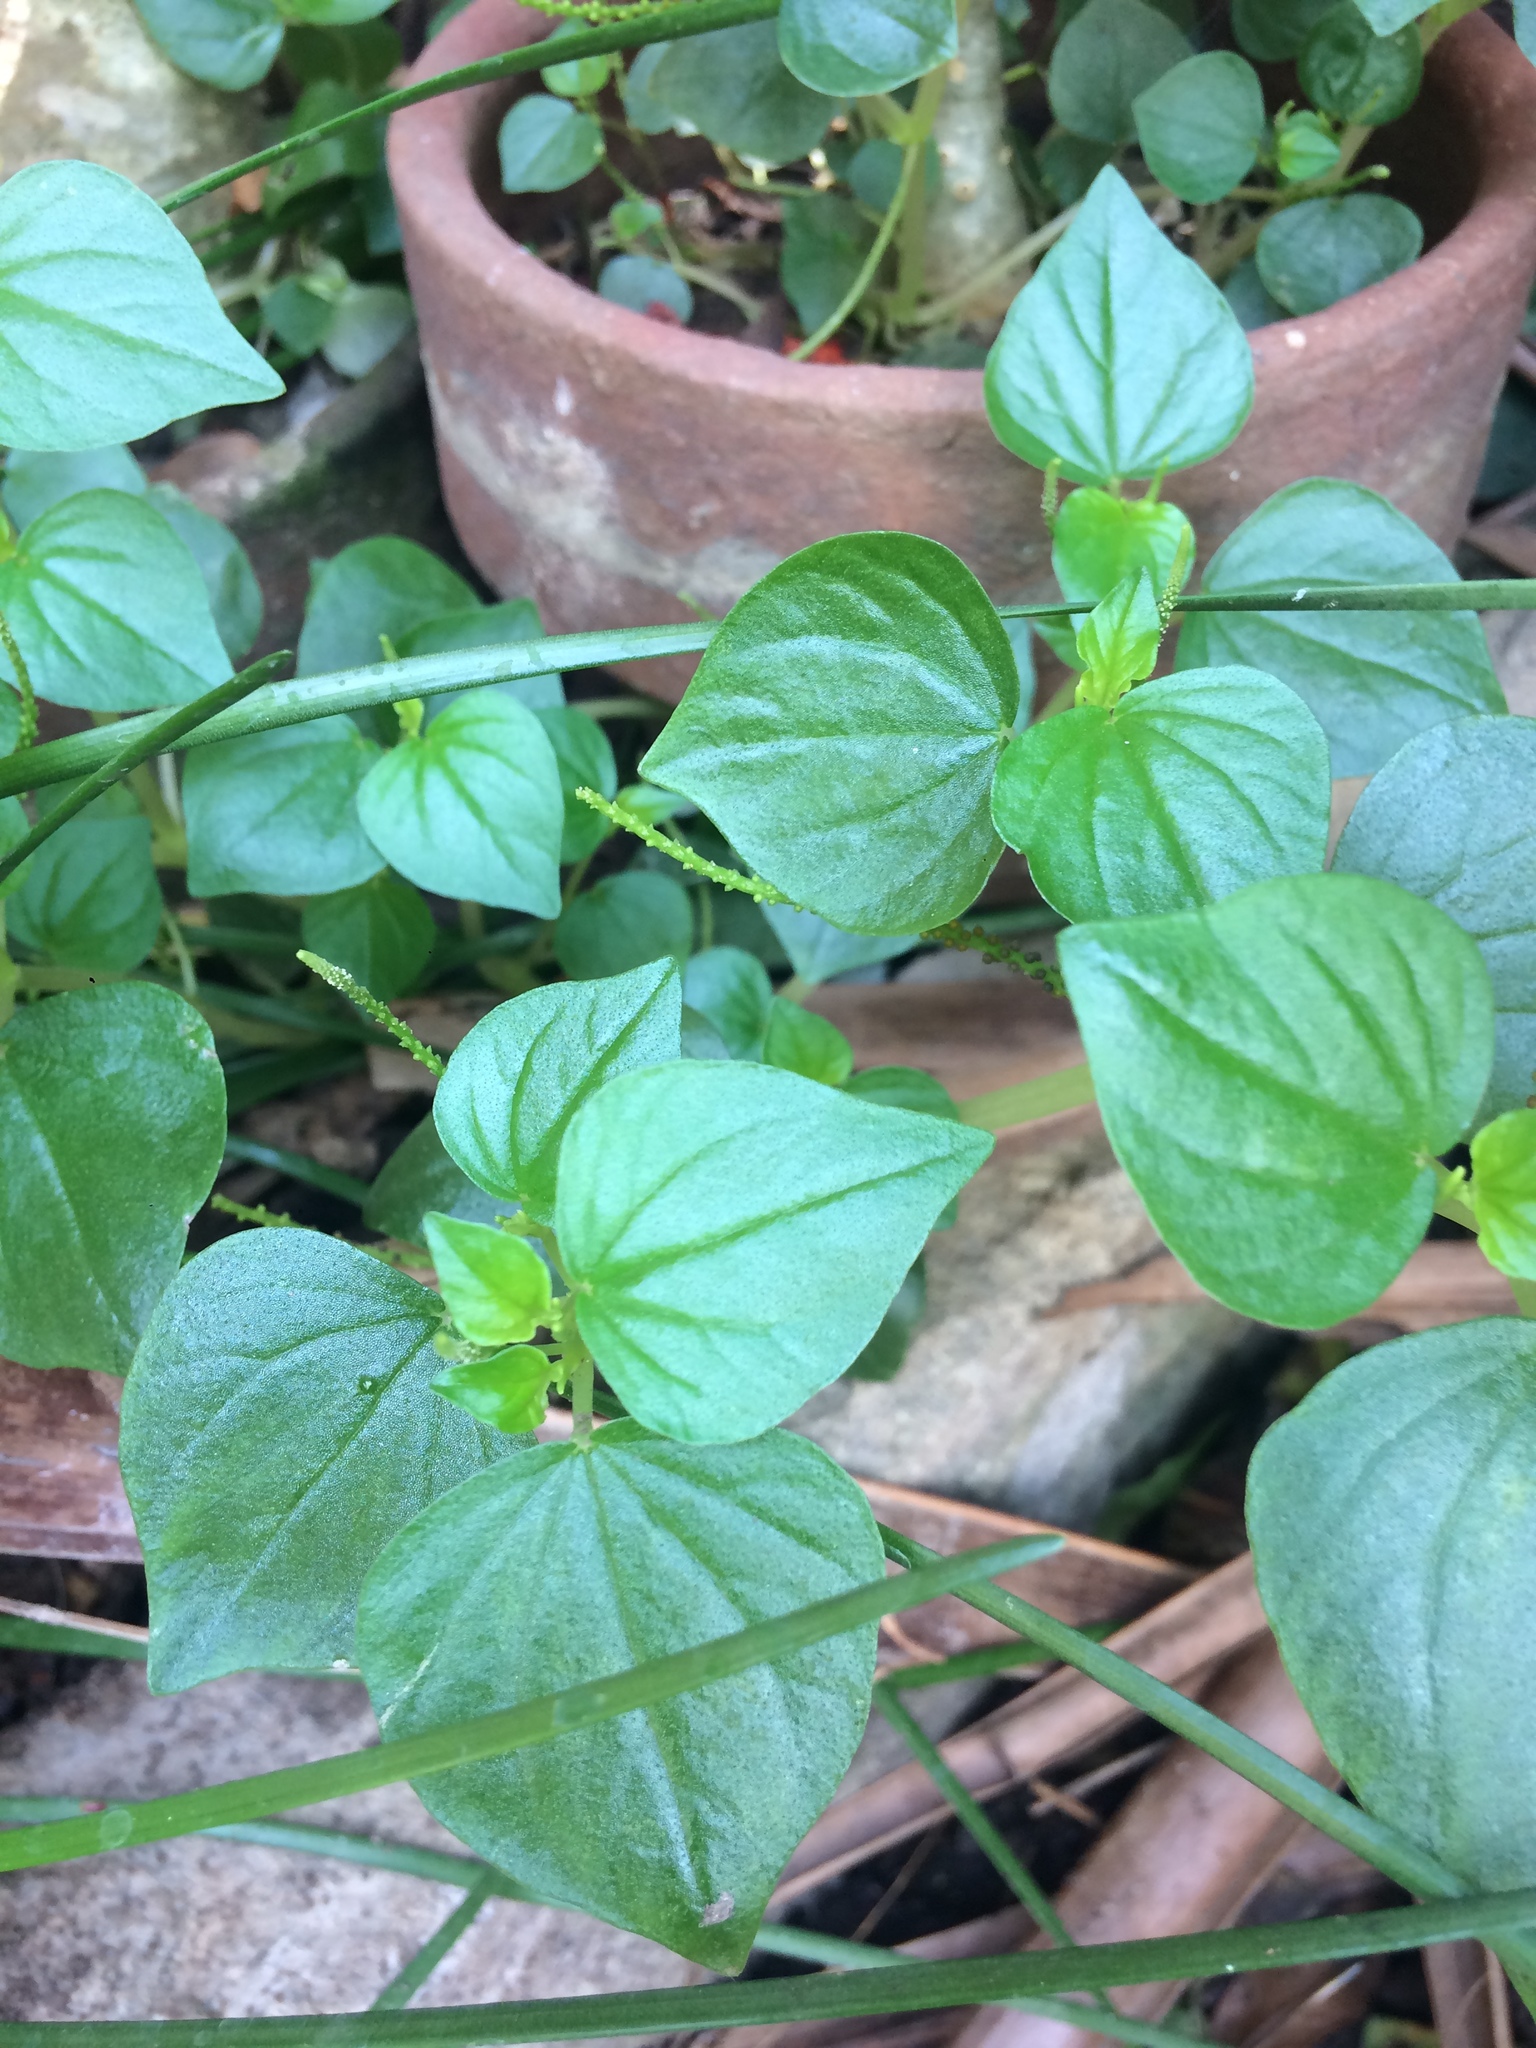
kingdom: Plantae
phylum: Tracheophyta
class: Magnoliopsida
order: Piperales
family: Piperaceae
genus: Peperomia
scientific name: Peperomia pellucida
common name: Man to man
